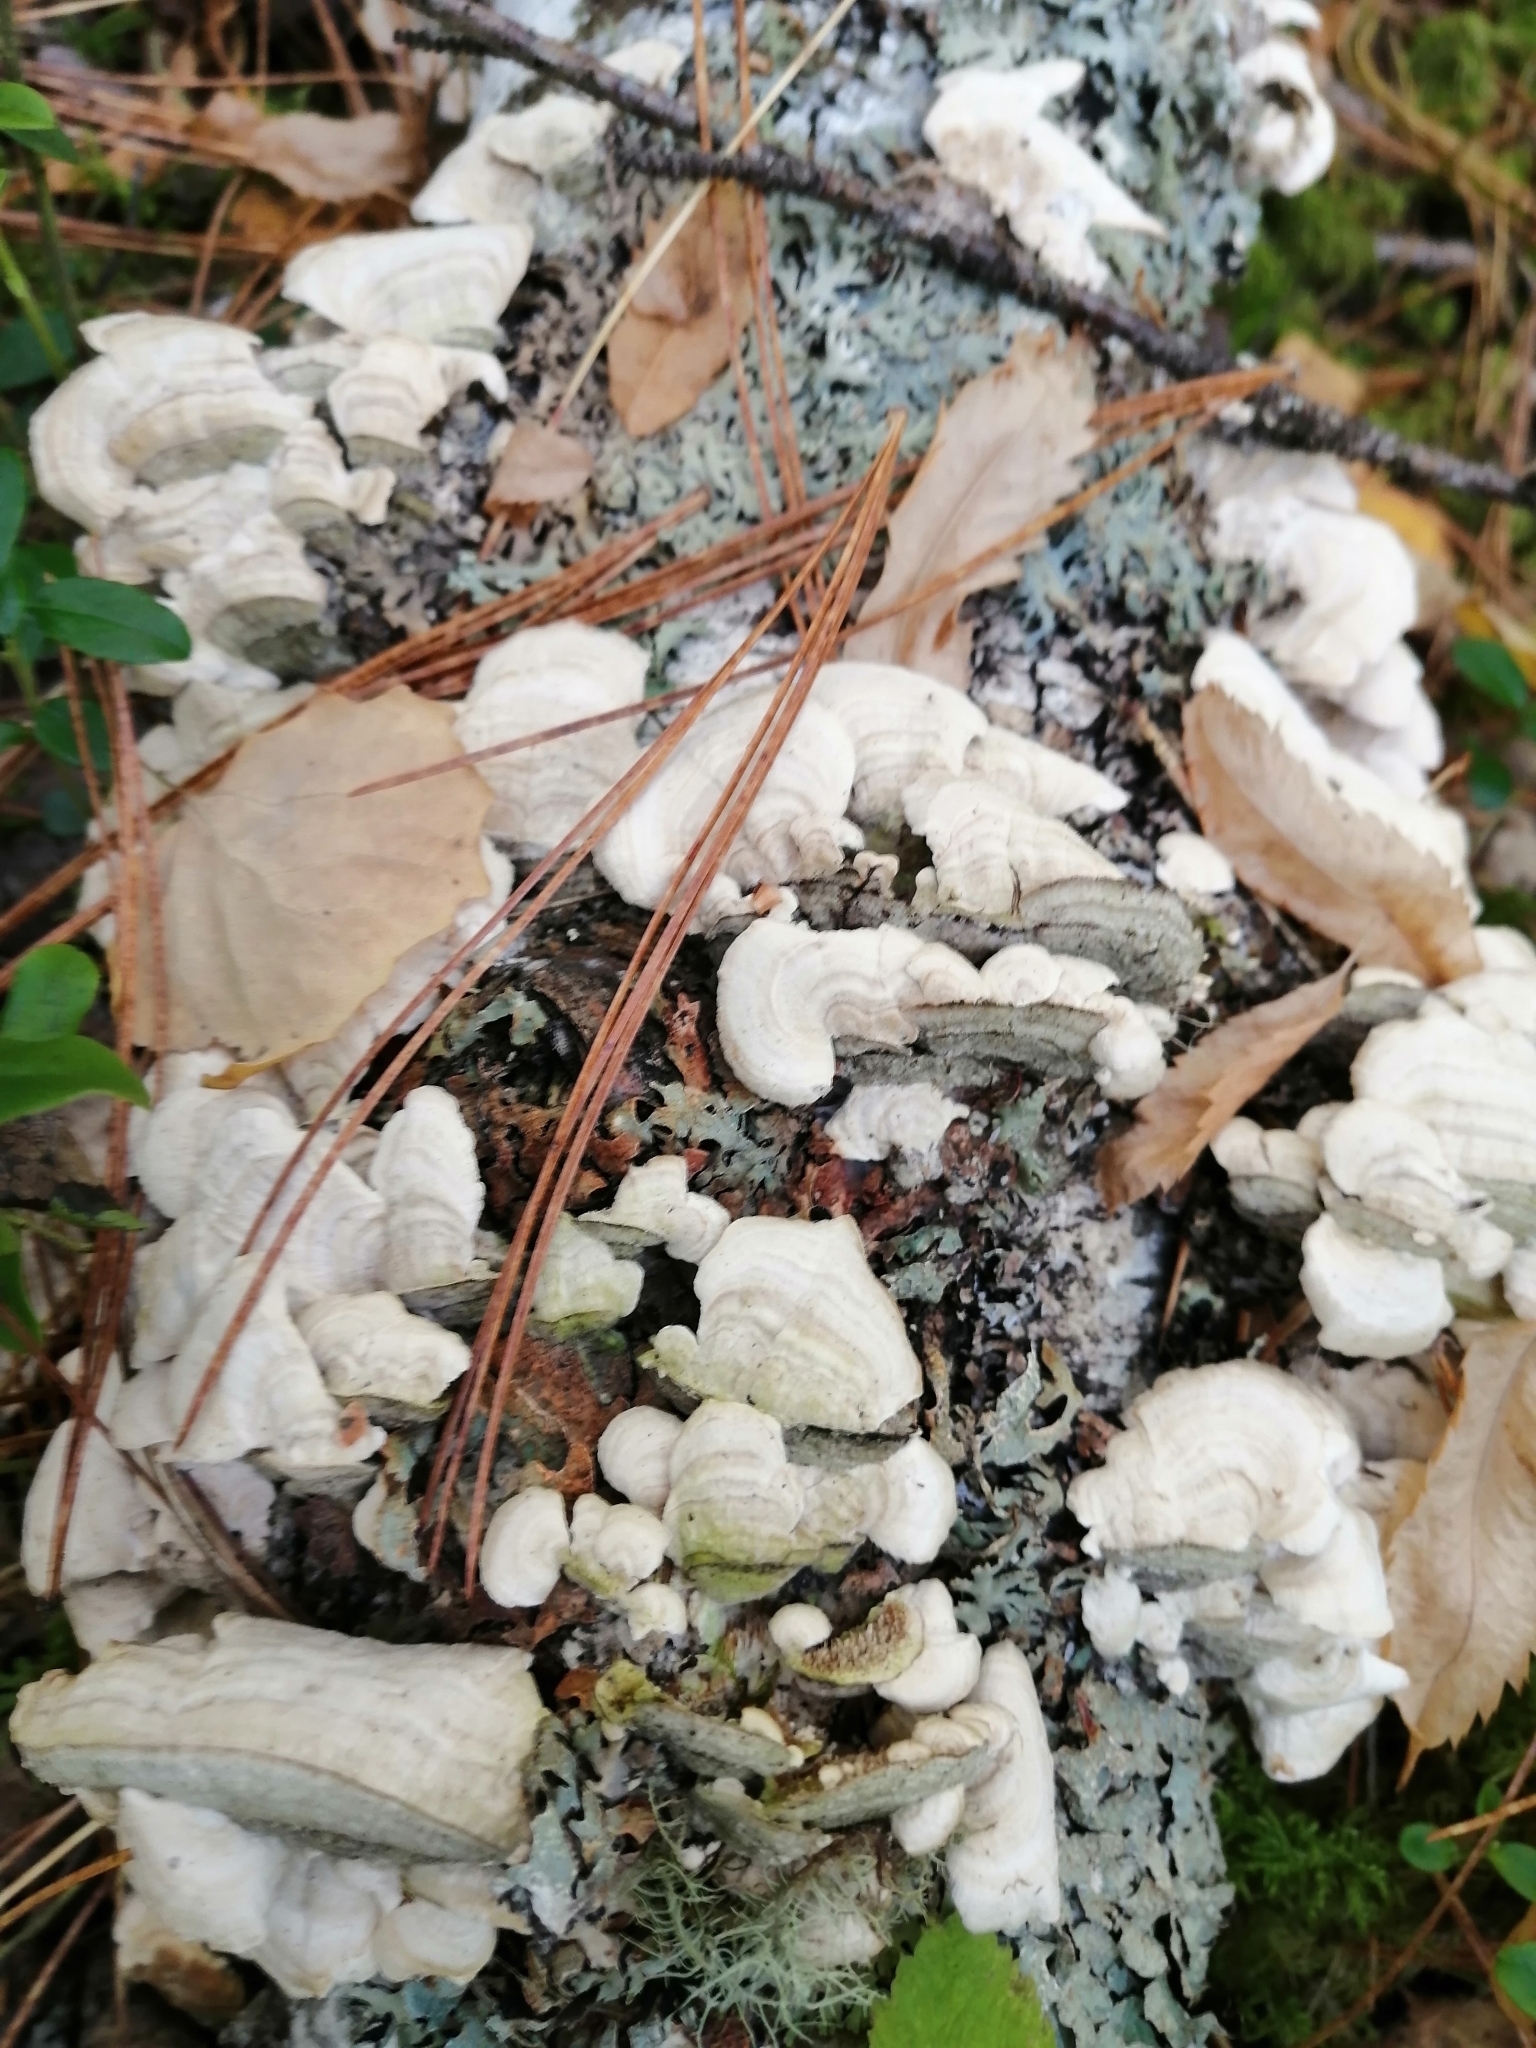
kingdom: Fungi
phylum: Basidiomycota
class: Agaricomycetes
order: Hymenochaetales
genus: Trichaptum
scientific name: Trichaptum biforme
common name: Violet-toothed polypore
